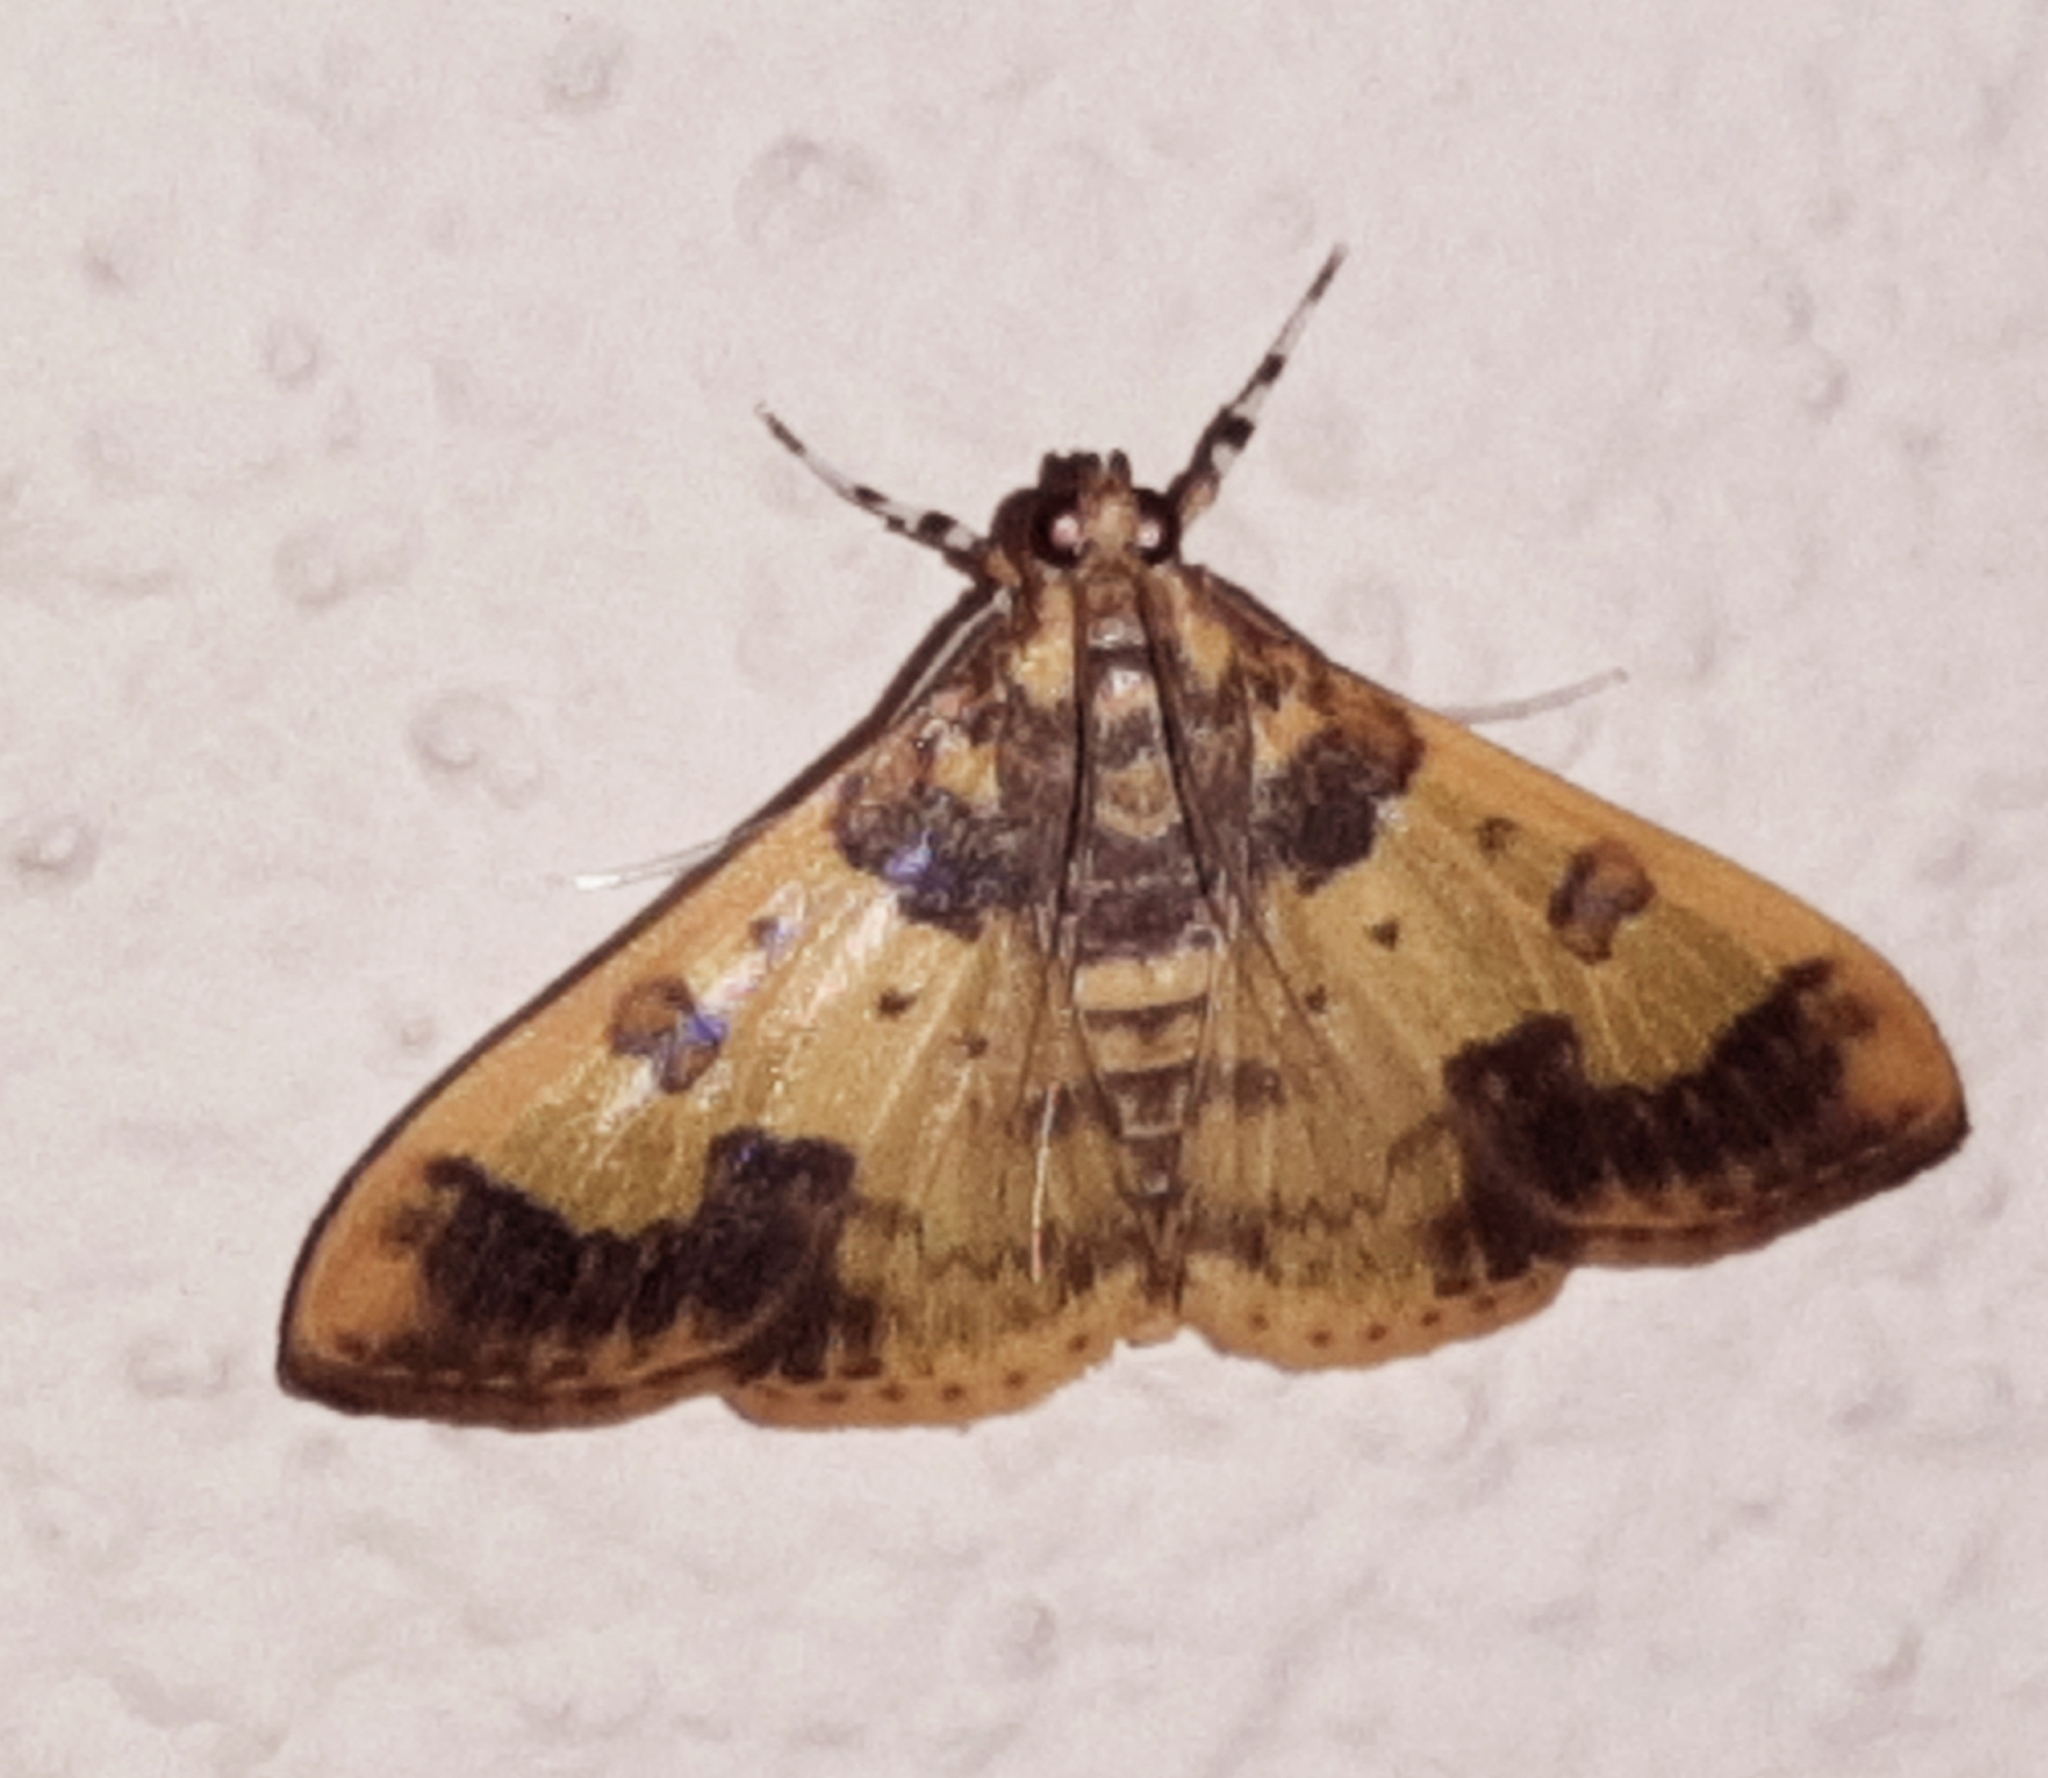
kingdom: Animalia
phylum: Arthropoda
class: Insecta
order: Lepidoptera
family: Crambidae
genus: Syllepte
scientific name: Syllepte pactolalis
